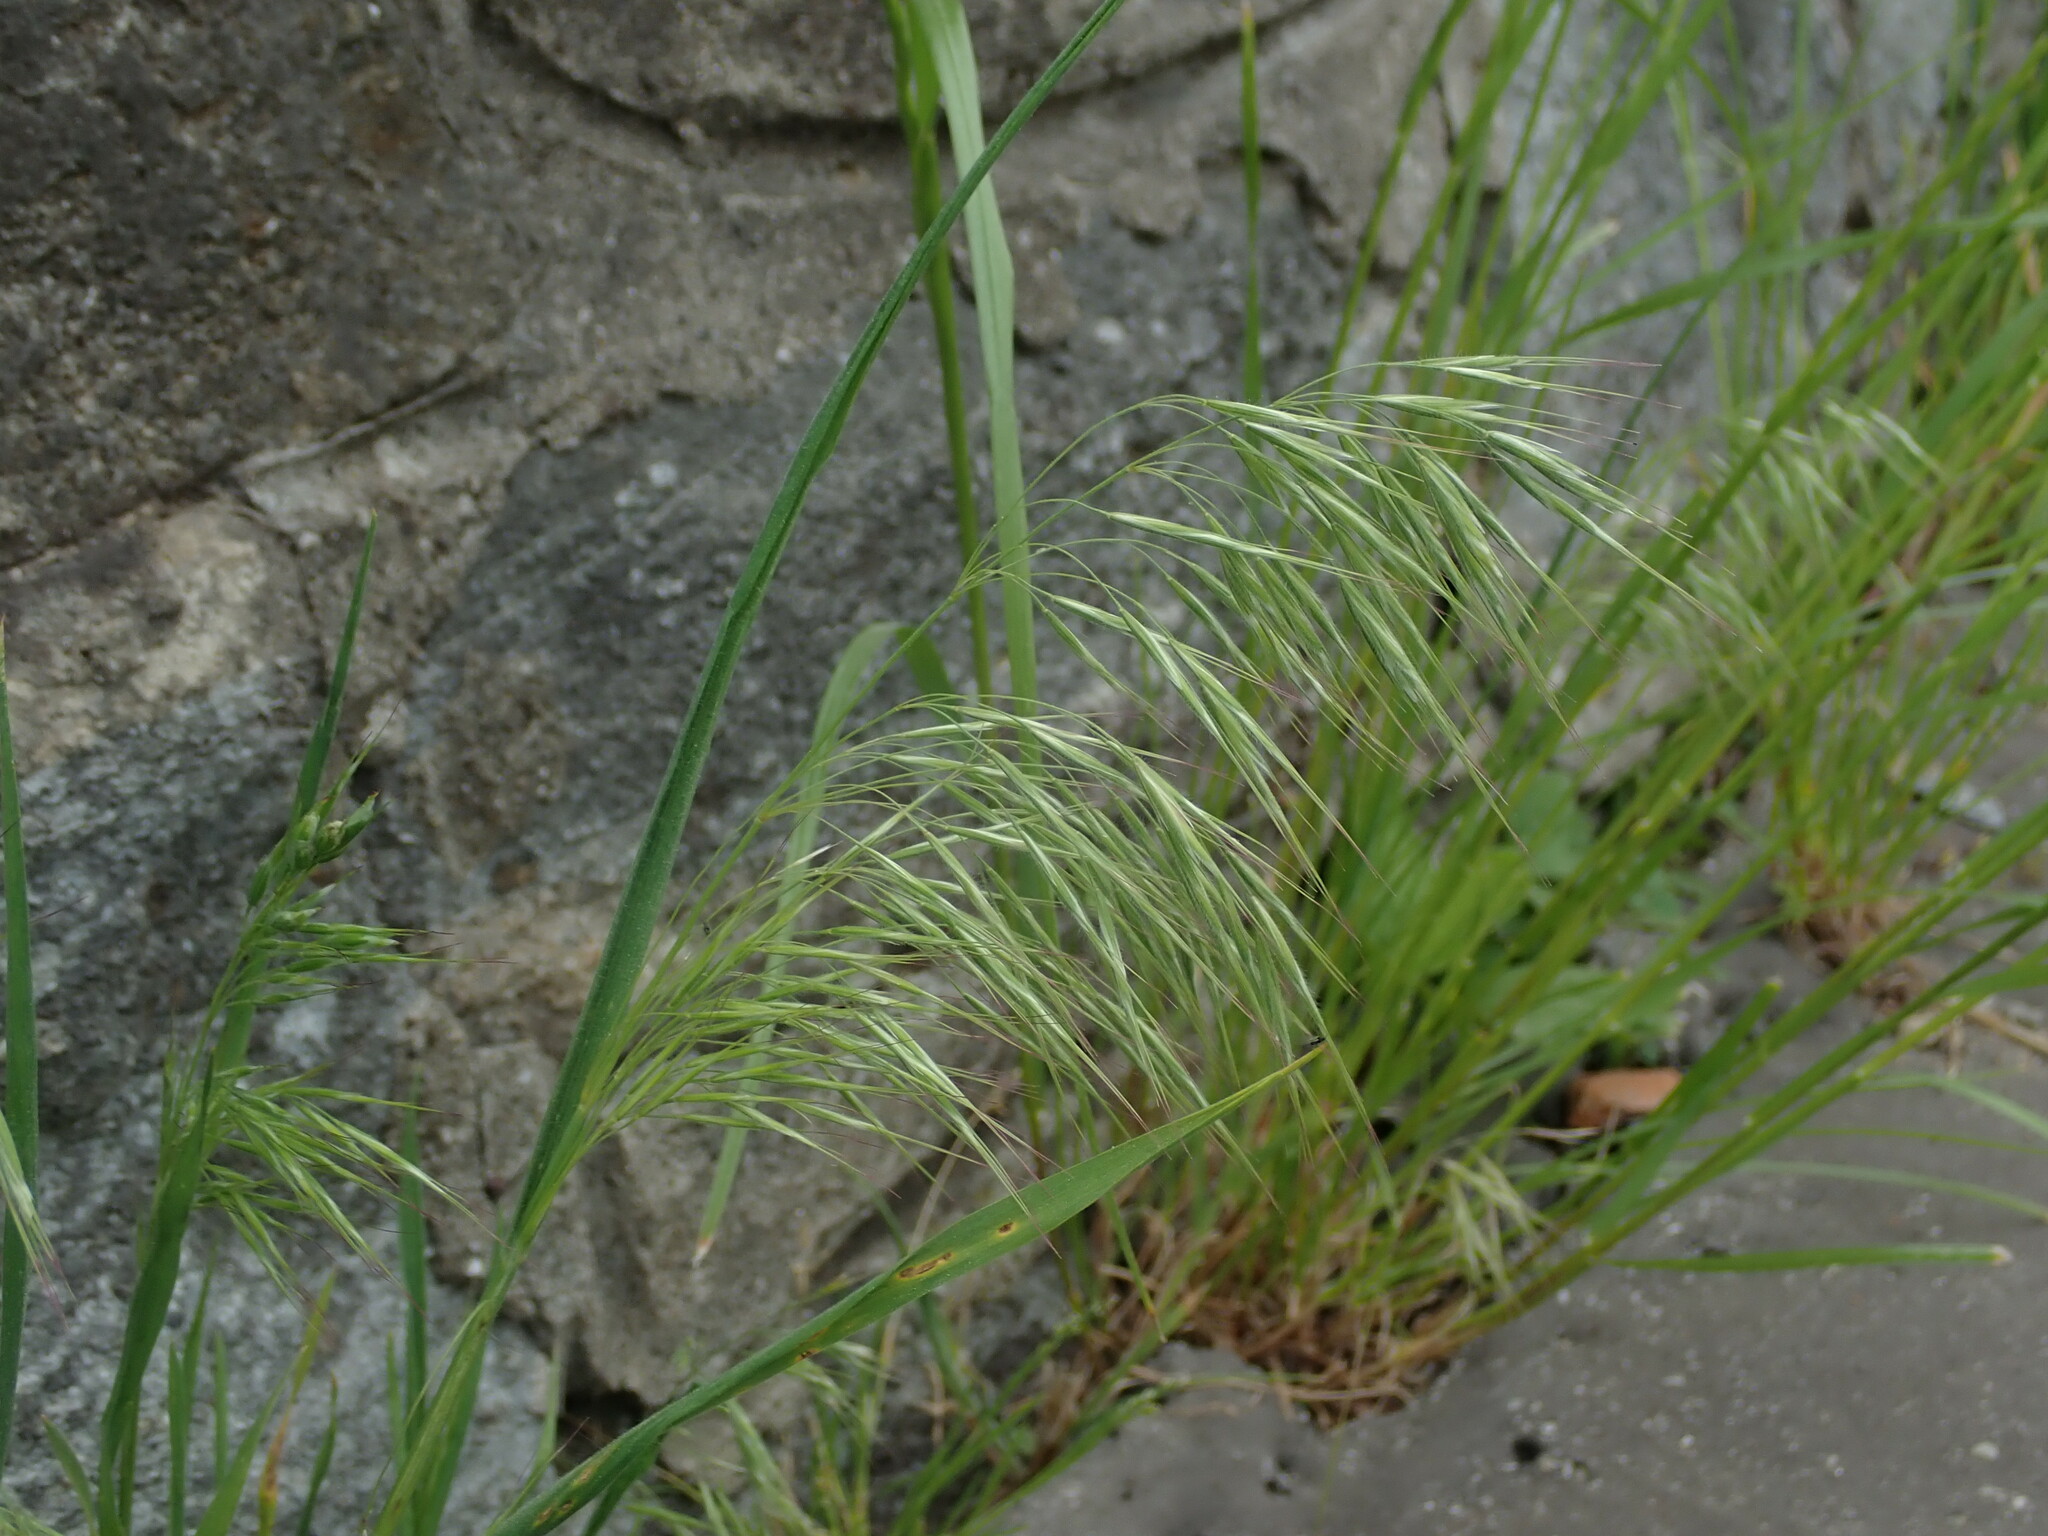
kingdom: Plantae
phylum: Tracheophyta
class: Liliopsida
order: Poales
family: Poaceae
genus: Bromus
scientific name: Bromus tectorum
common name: Cheatgrass
